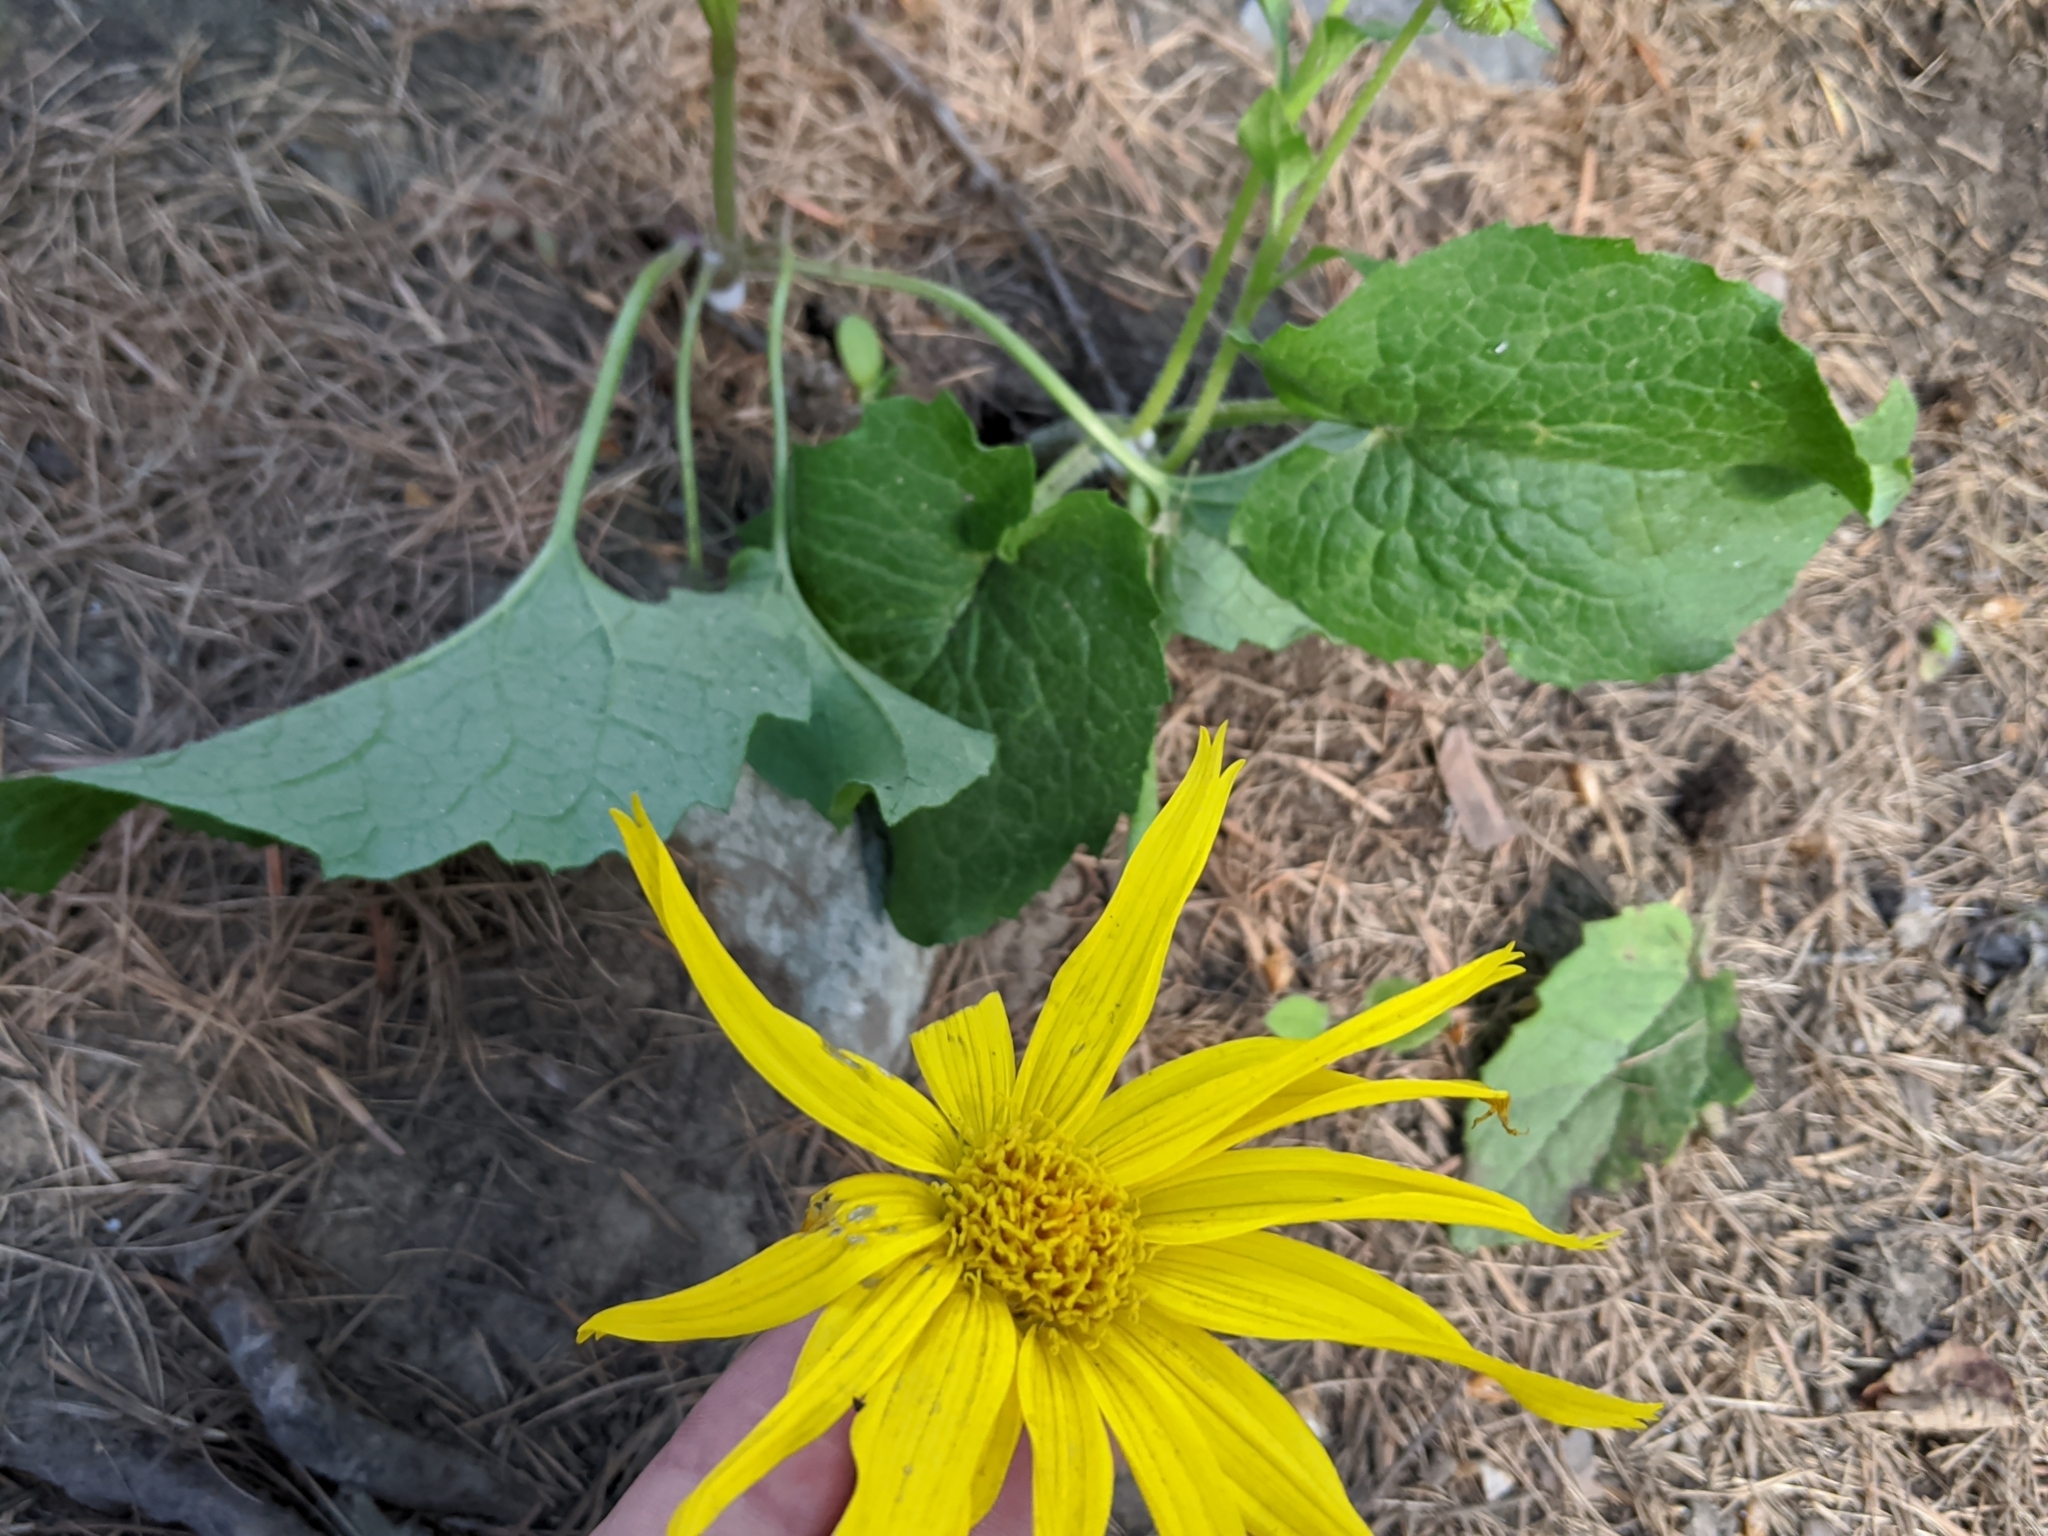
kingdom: Plantae
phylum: Tracheophyta
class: Magnoliopsida
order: Asterales
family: Asteraceae
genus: Arnica
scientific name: Arnica cordifolia
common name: Heart-leaf arnica
